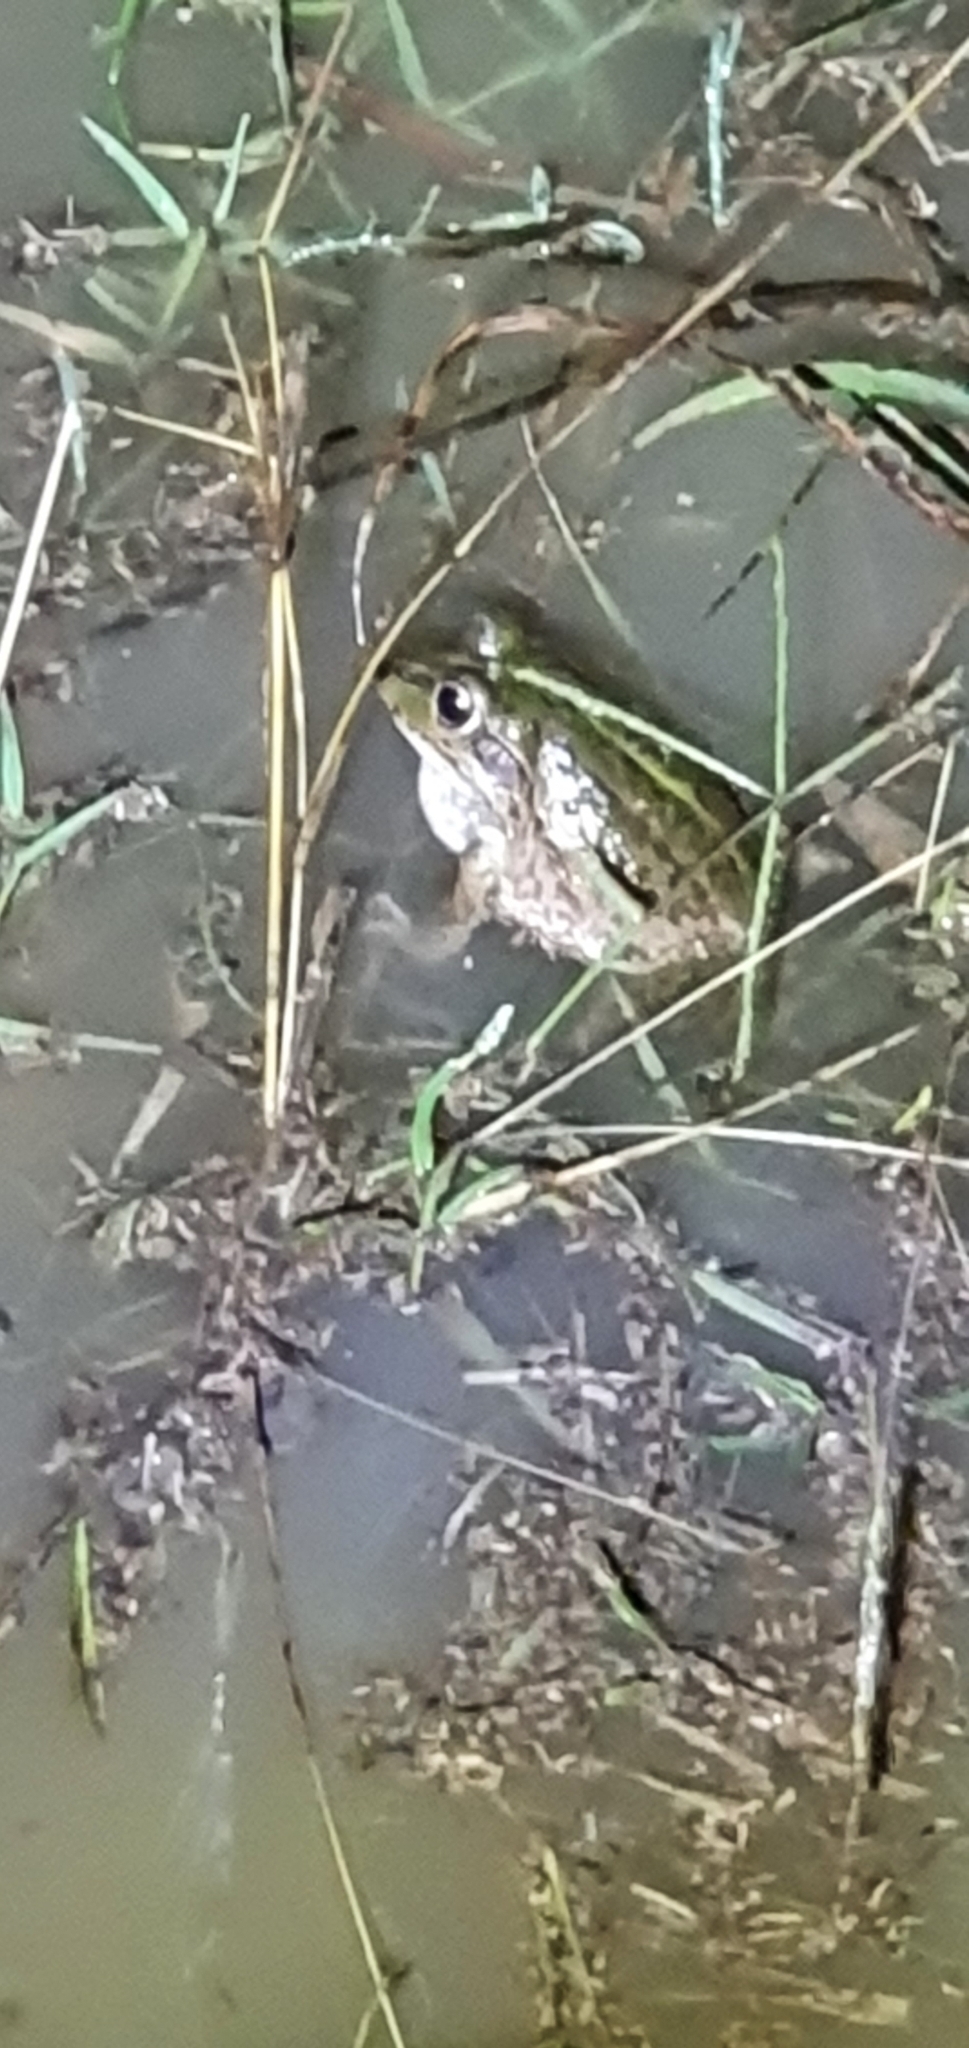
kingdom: Animalia
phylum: Chordata
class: Amphibia
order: Anura
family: Pelodryadidae
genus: Ranoidea
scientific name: Ranoidea alboguttata
